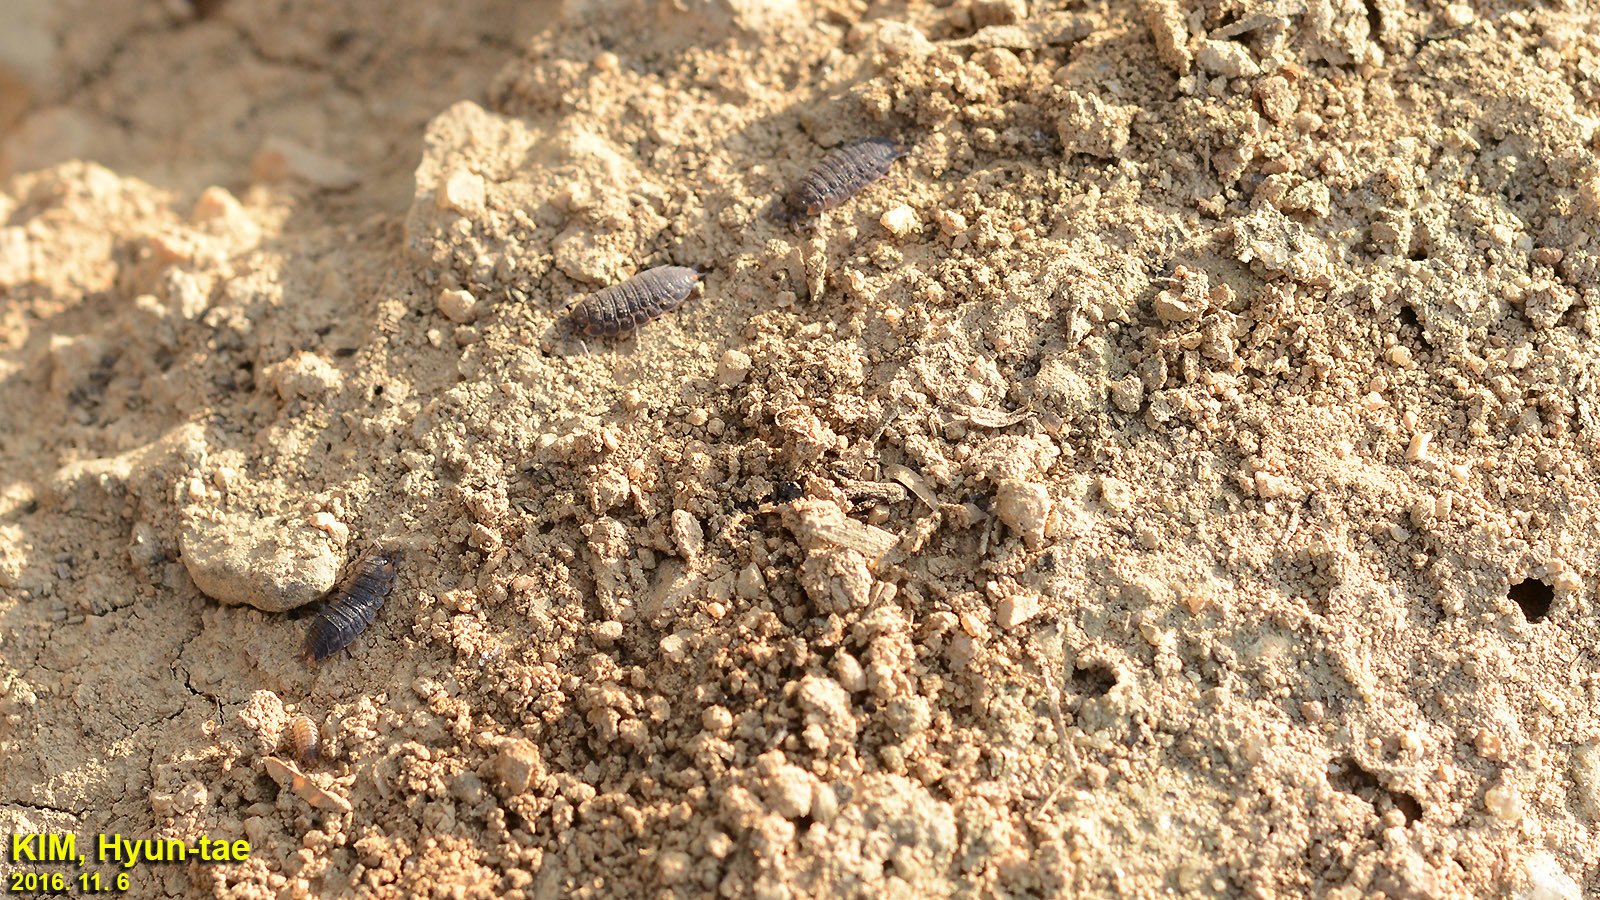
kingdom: Animalia
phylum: Arthropoda
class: Malacostraca
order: Isopoda
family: Agnaridae
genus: Koreoniscus
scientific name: Koreoniscus racovitzai
